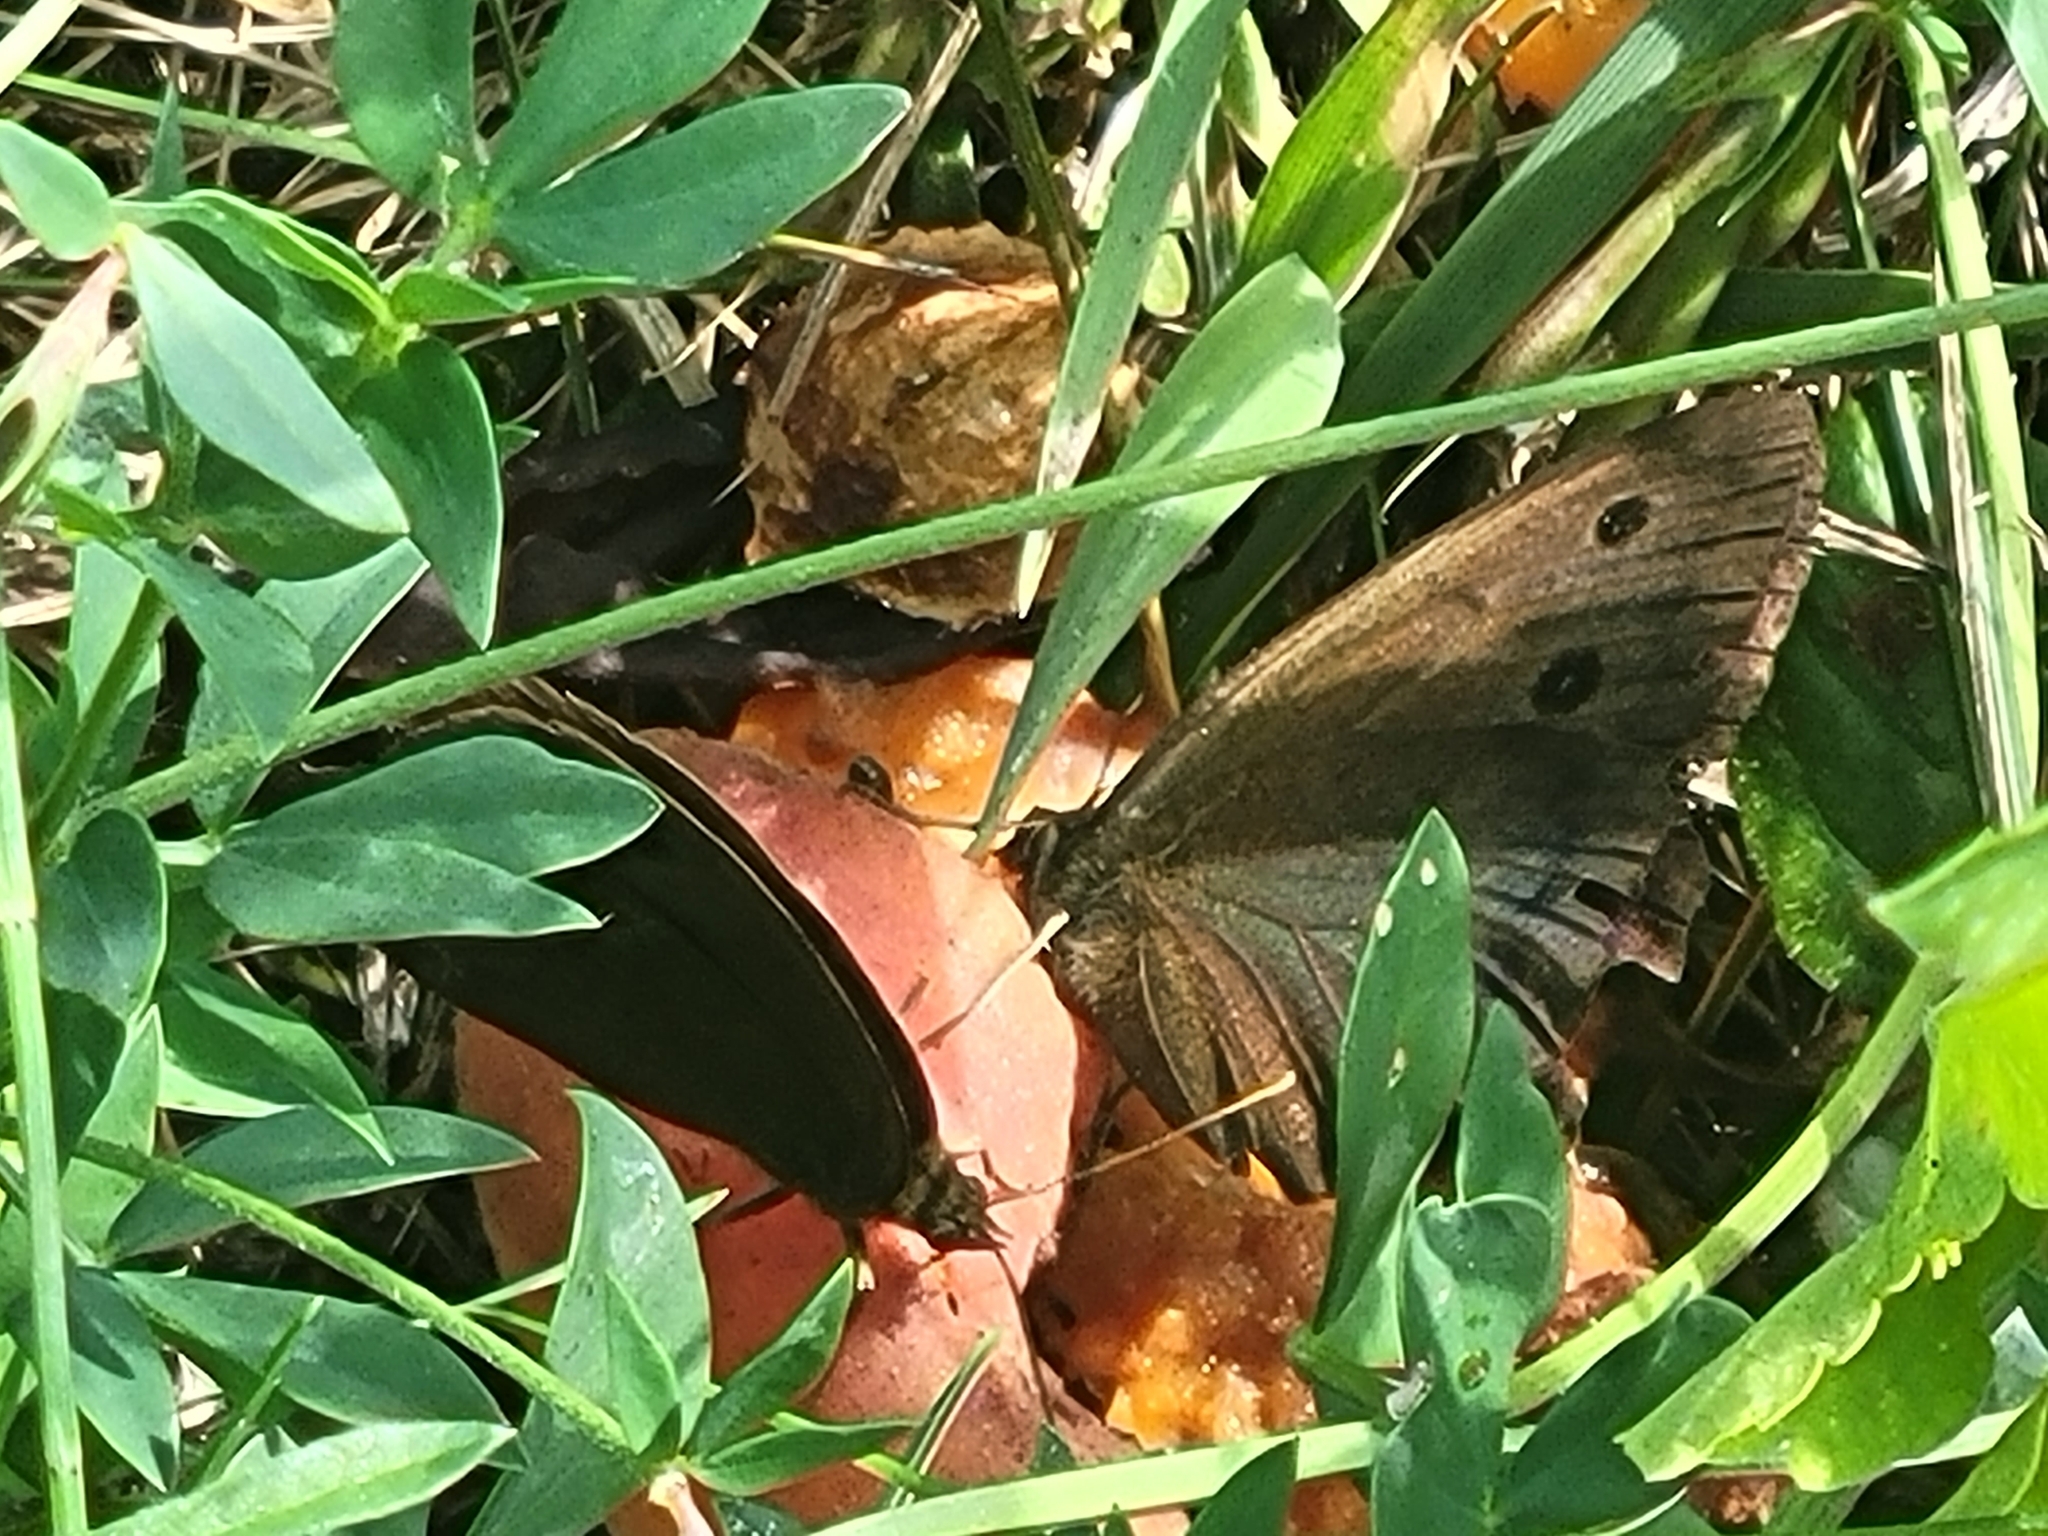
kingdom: Animalia
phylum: Arthropoda
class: Insecta
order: Lepidoptera
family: Nymphalidae
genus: Minois
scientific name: Minois dryas
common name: Dryad
